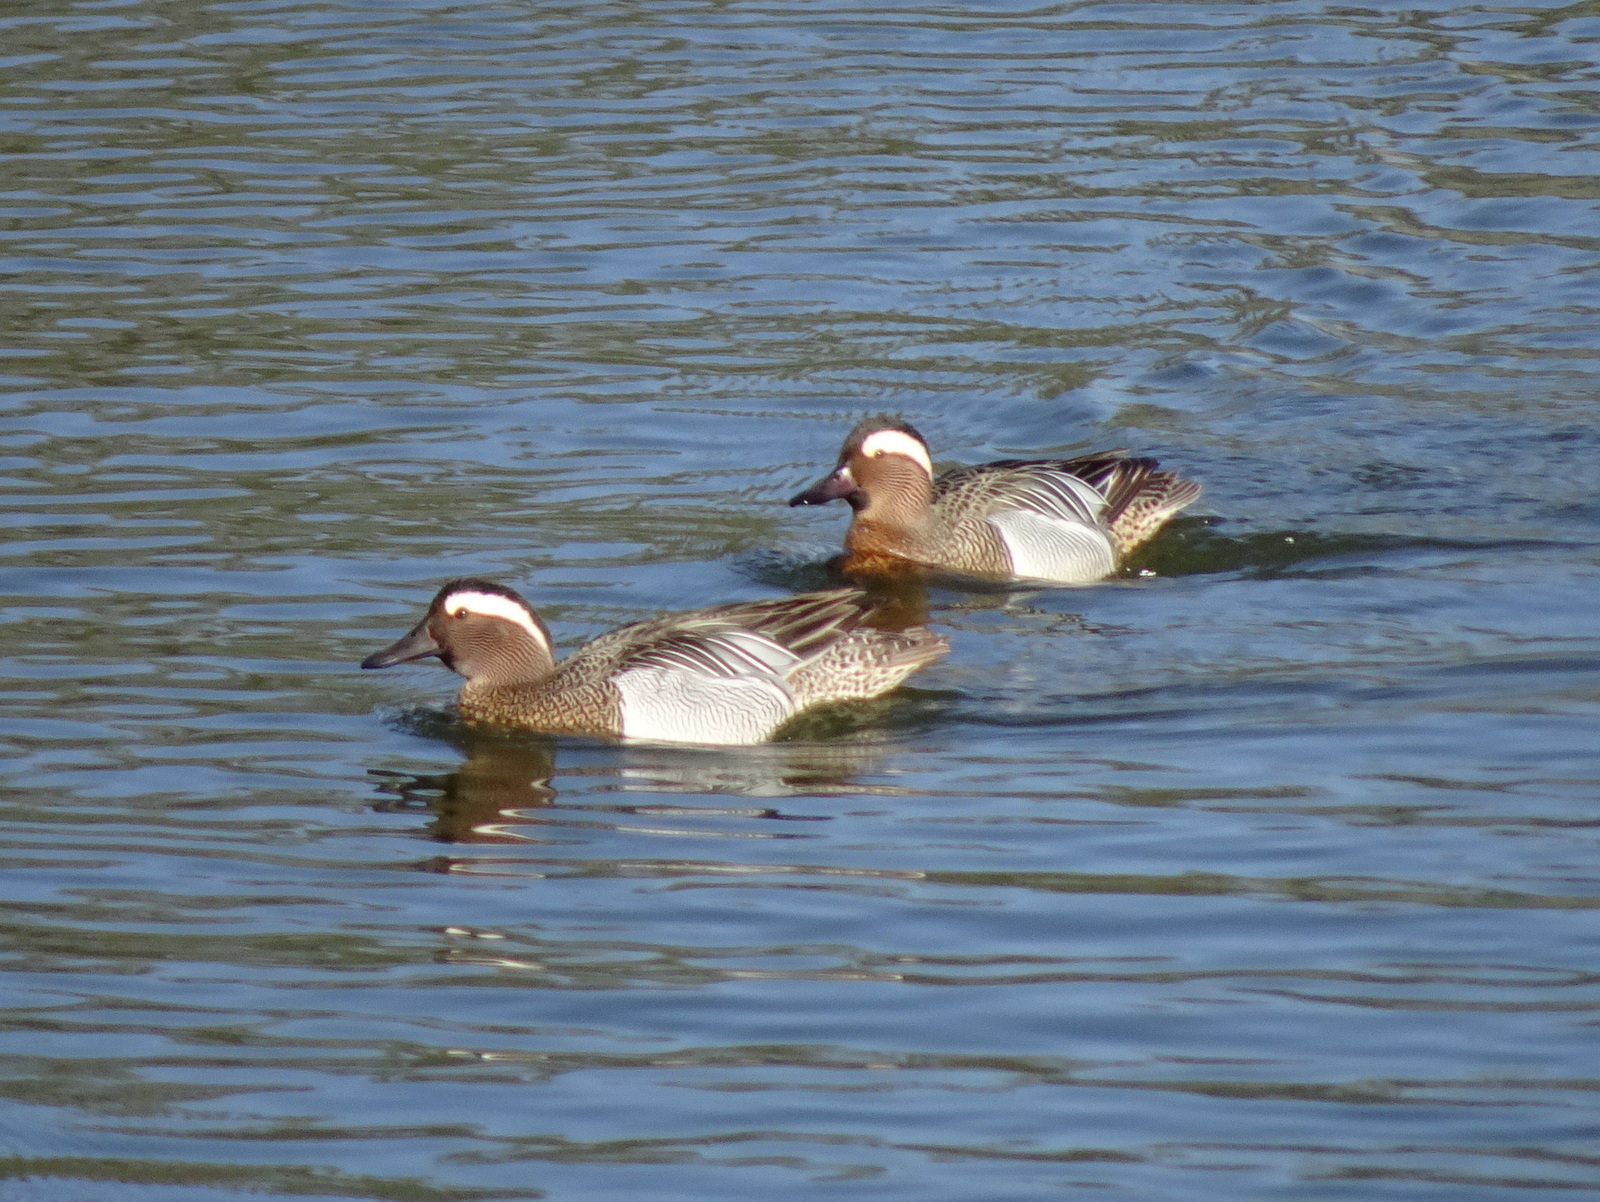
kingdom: Animalia
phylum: Chordata
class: Aves
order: Anseriformes
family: Anatidae
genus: Spatula
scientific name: Spatula querquedula
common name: Garganey
